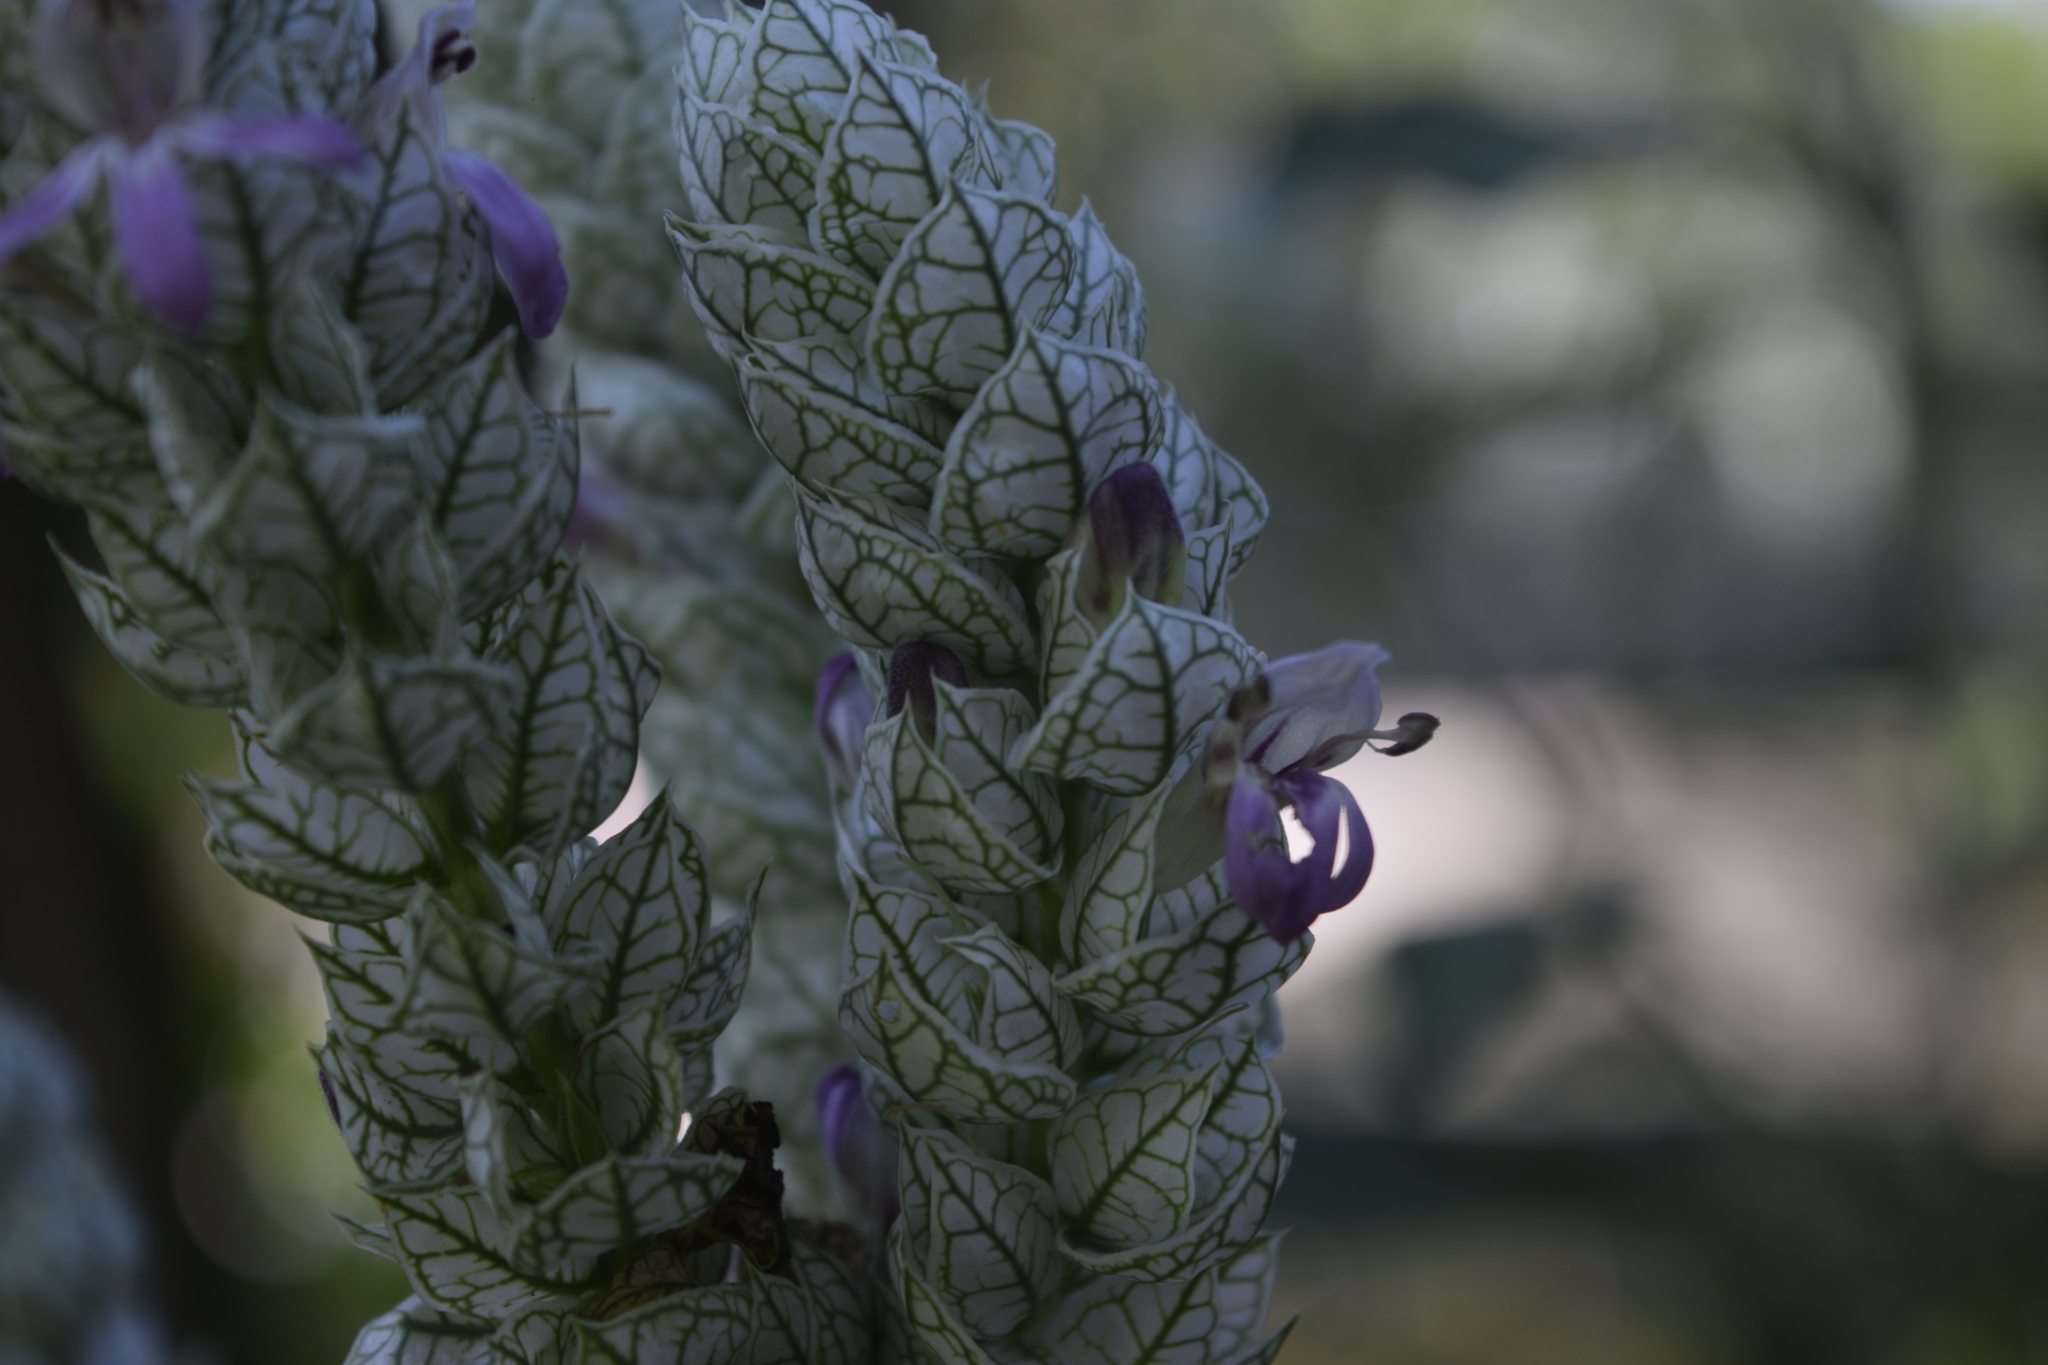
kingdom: Plantae
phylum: Tracheophyta
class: Magnoliopsida
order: Lamiales
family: Acanthaceae
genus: Justicia
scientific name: Justicia betonica
